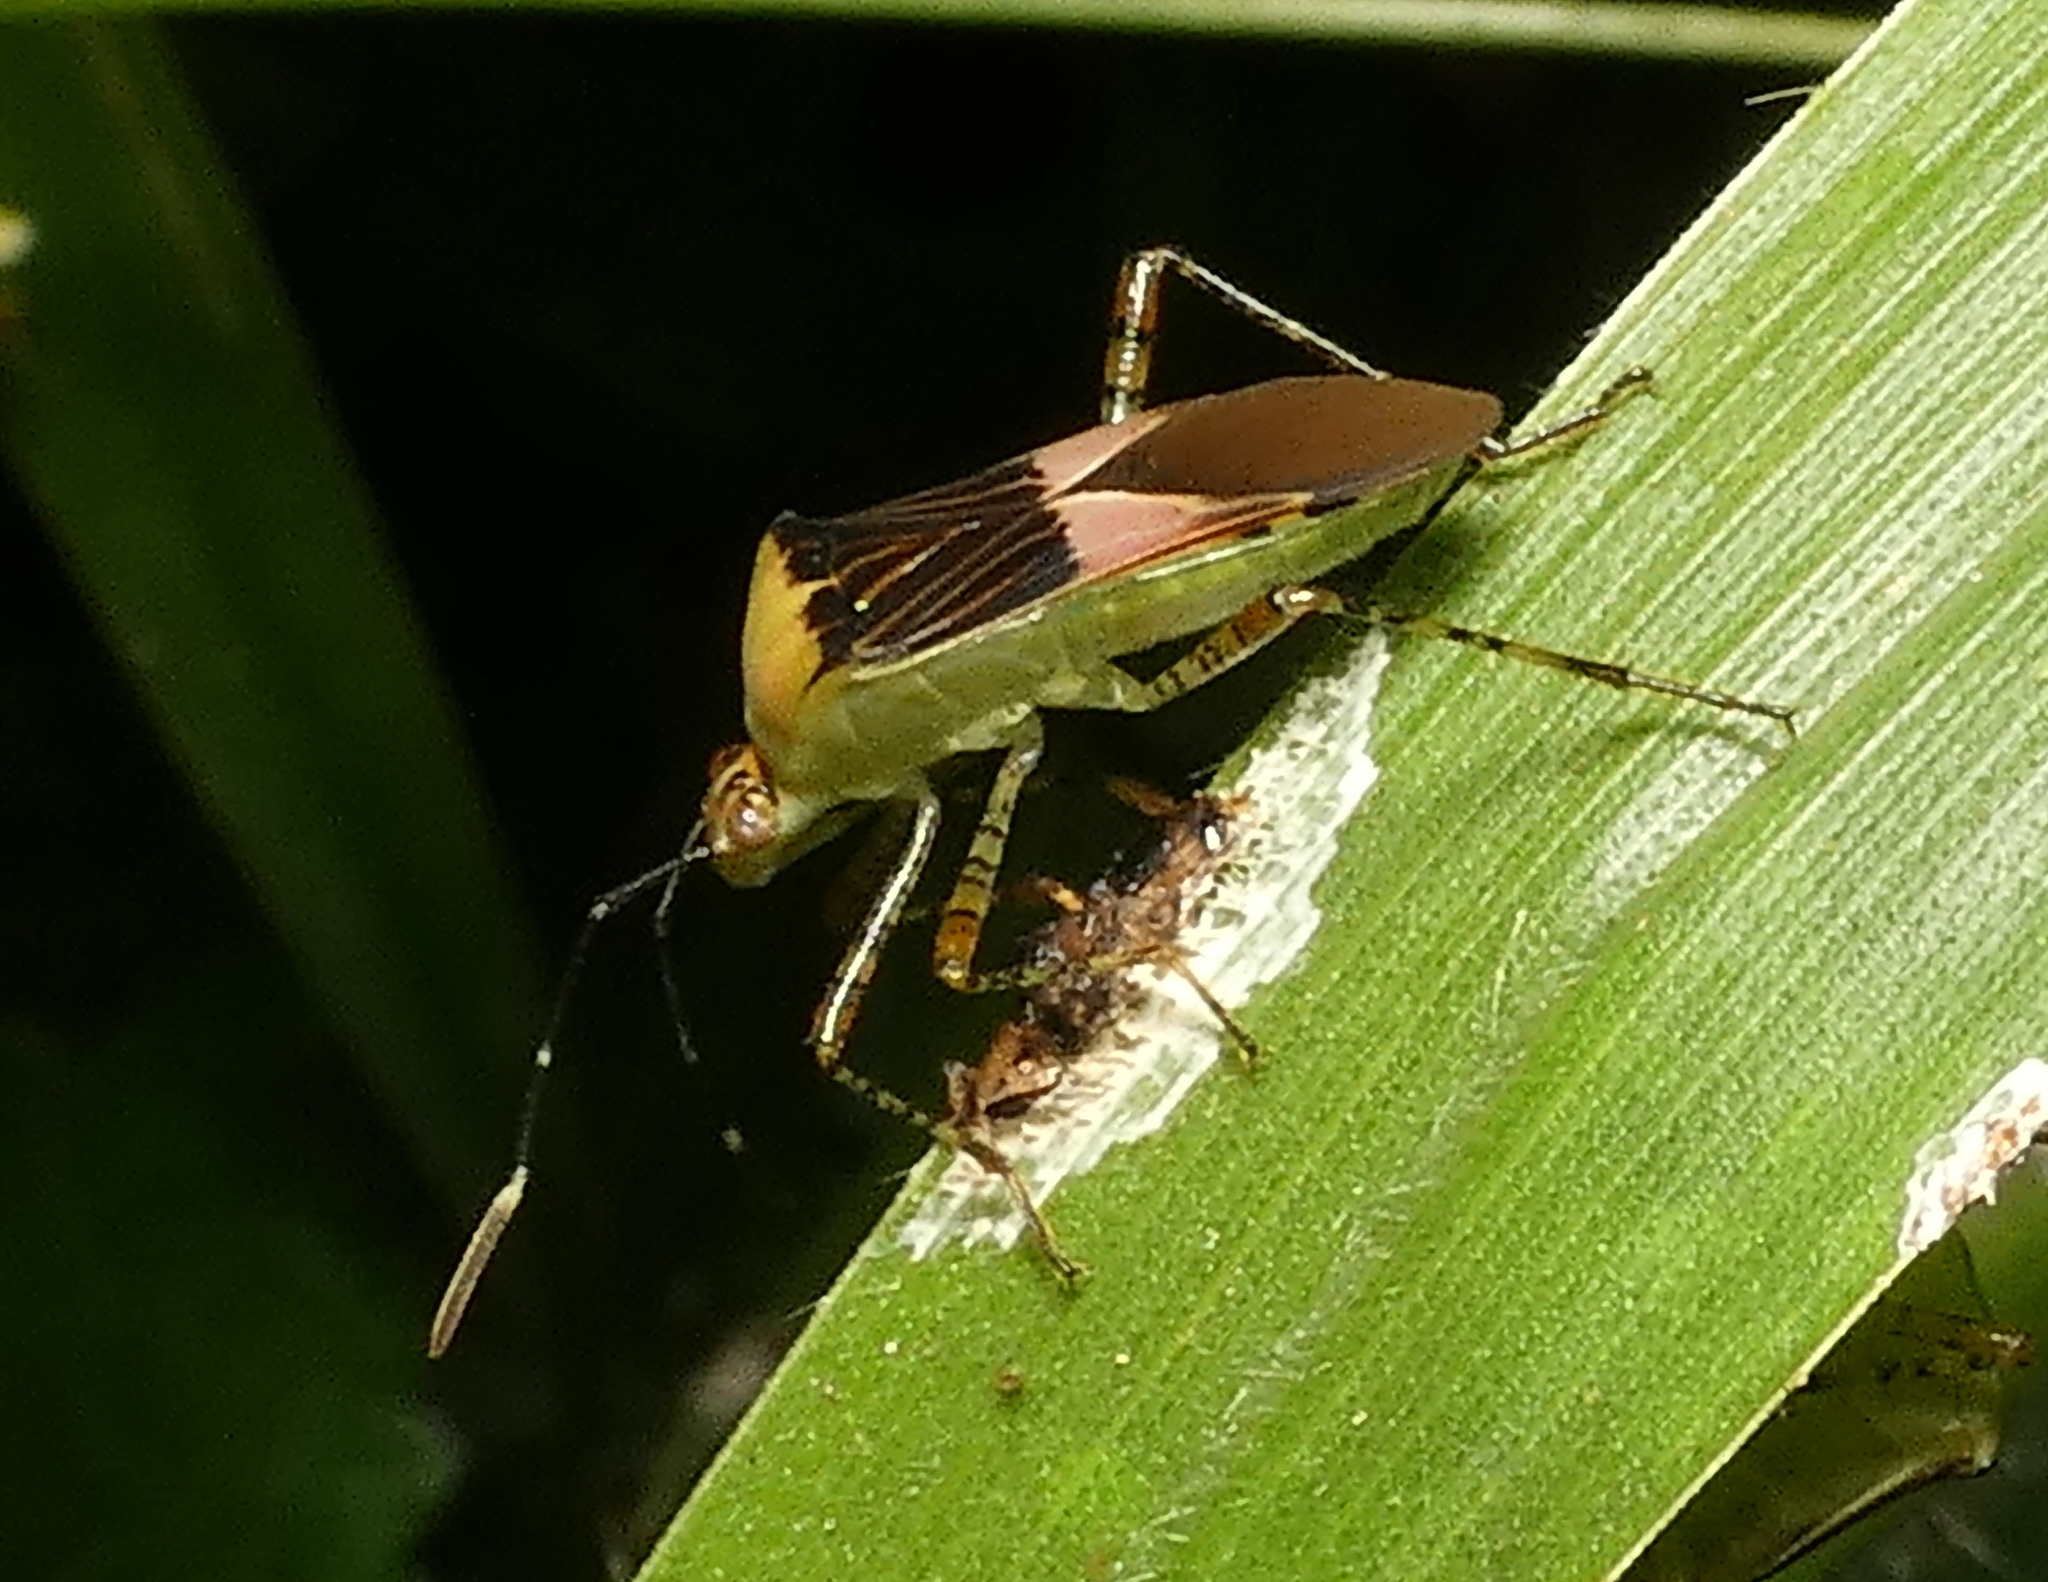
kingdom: Animalia
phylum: Arthropoda
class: Insecta
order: Hemiptera
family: Coreidae
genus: Hypselonotus
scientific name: Hypselonotus fulvus
